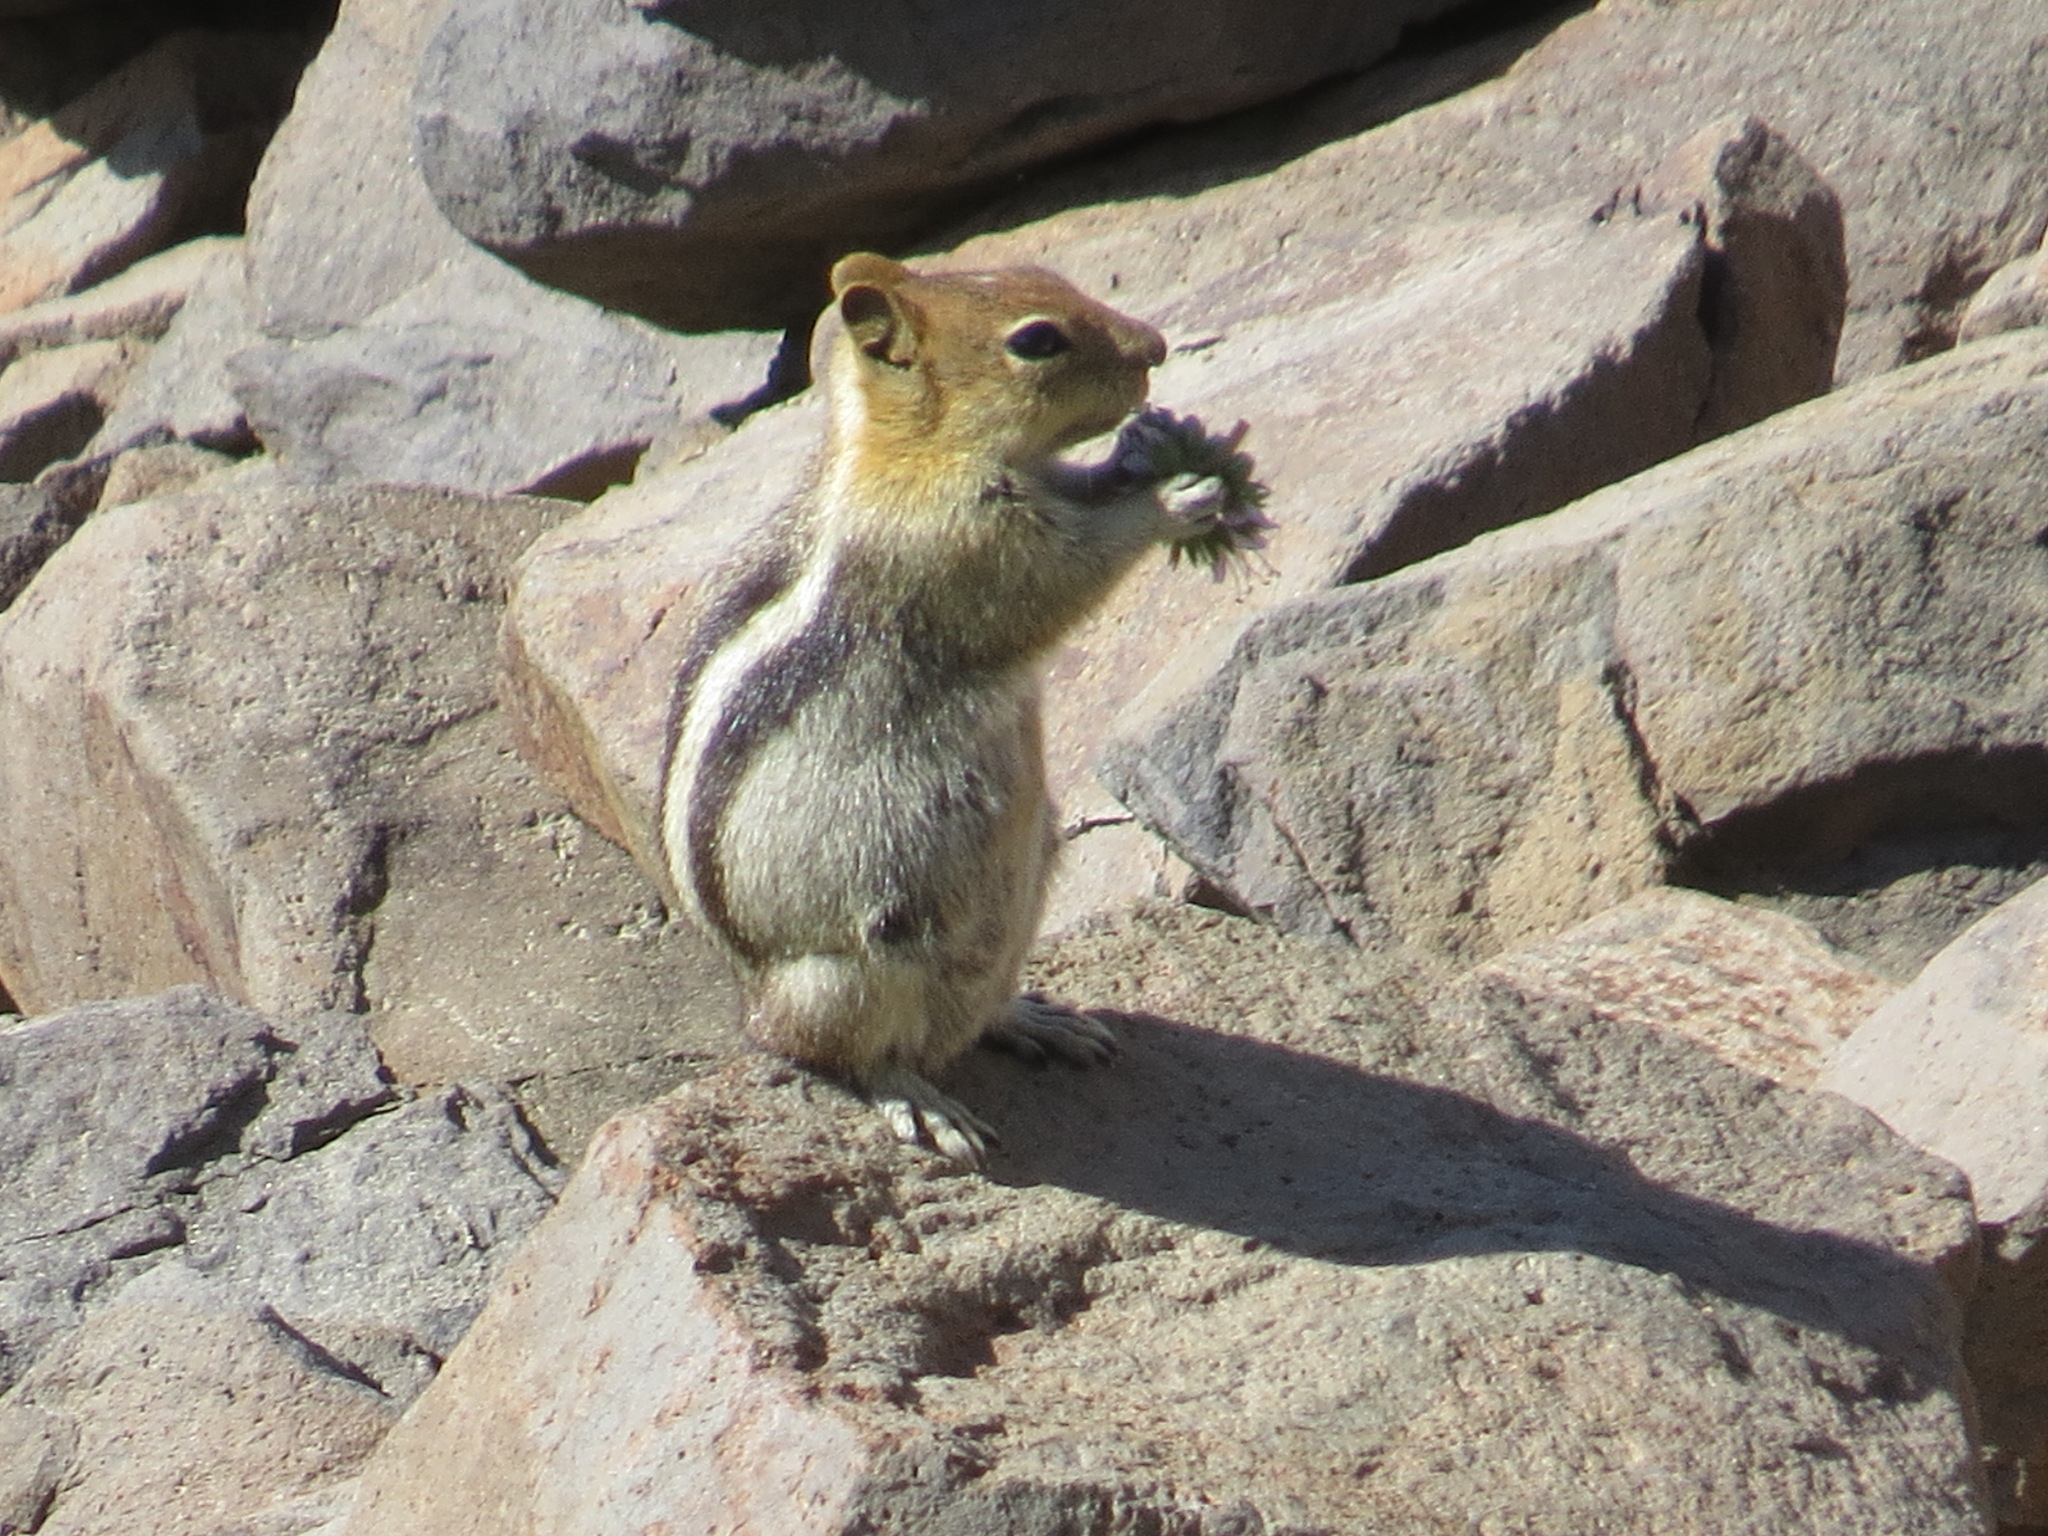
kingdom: Animalia
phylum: Chordata
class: Mammalia
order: Rodentia
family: Sciuridae
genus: Callospermophilus
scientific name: Callospermophilus lateralis
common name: Golden-mantled ground squirrel
